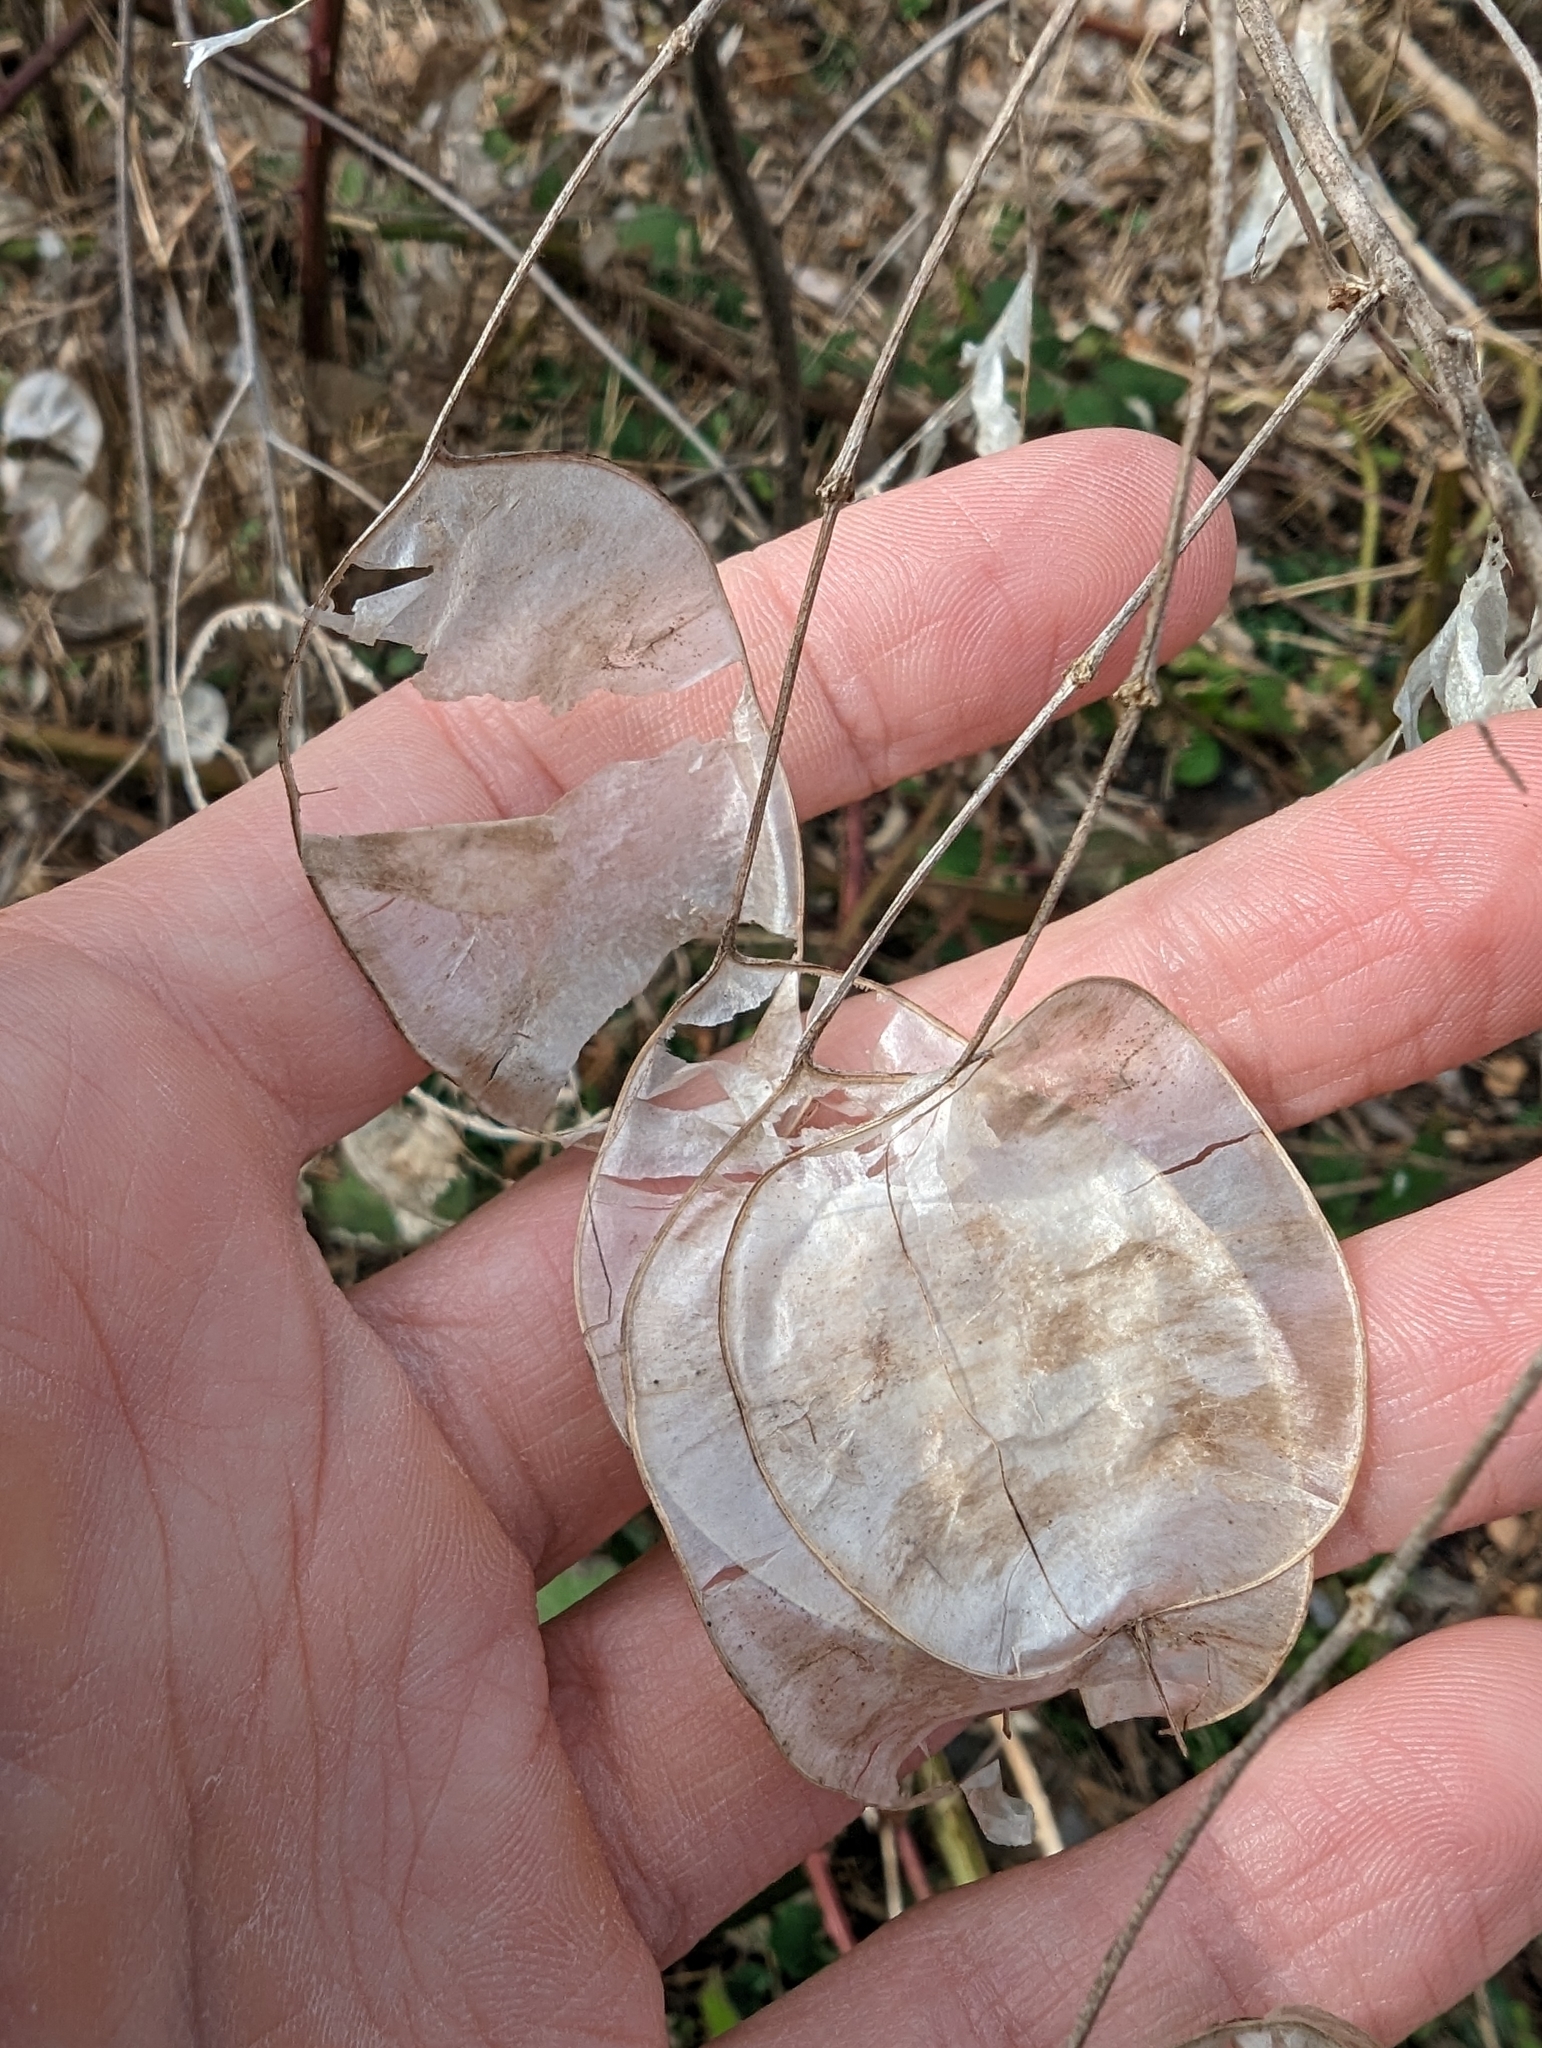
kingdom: Plantae
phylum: Tracheophyta
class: Magnoliopsida
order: Brassicales
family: Brassicaceae
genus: Lunaria
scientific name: Lunaria annua
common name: Honesty
